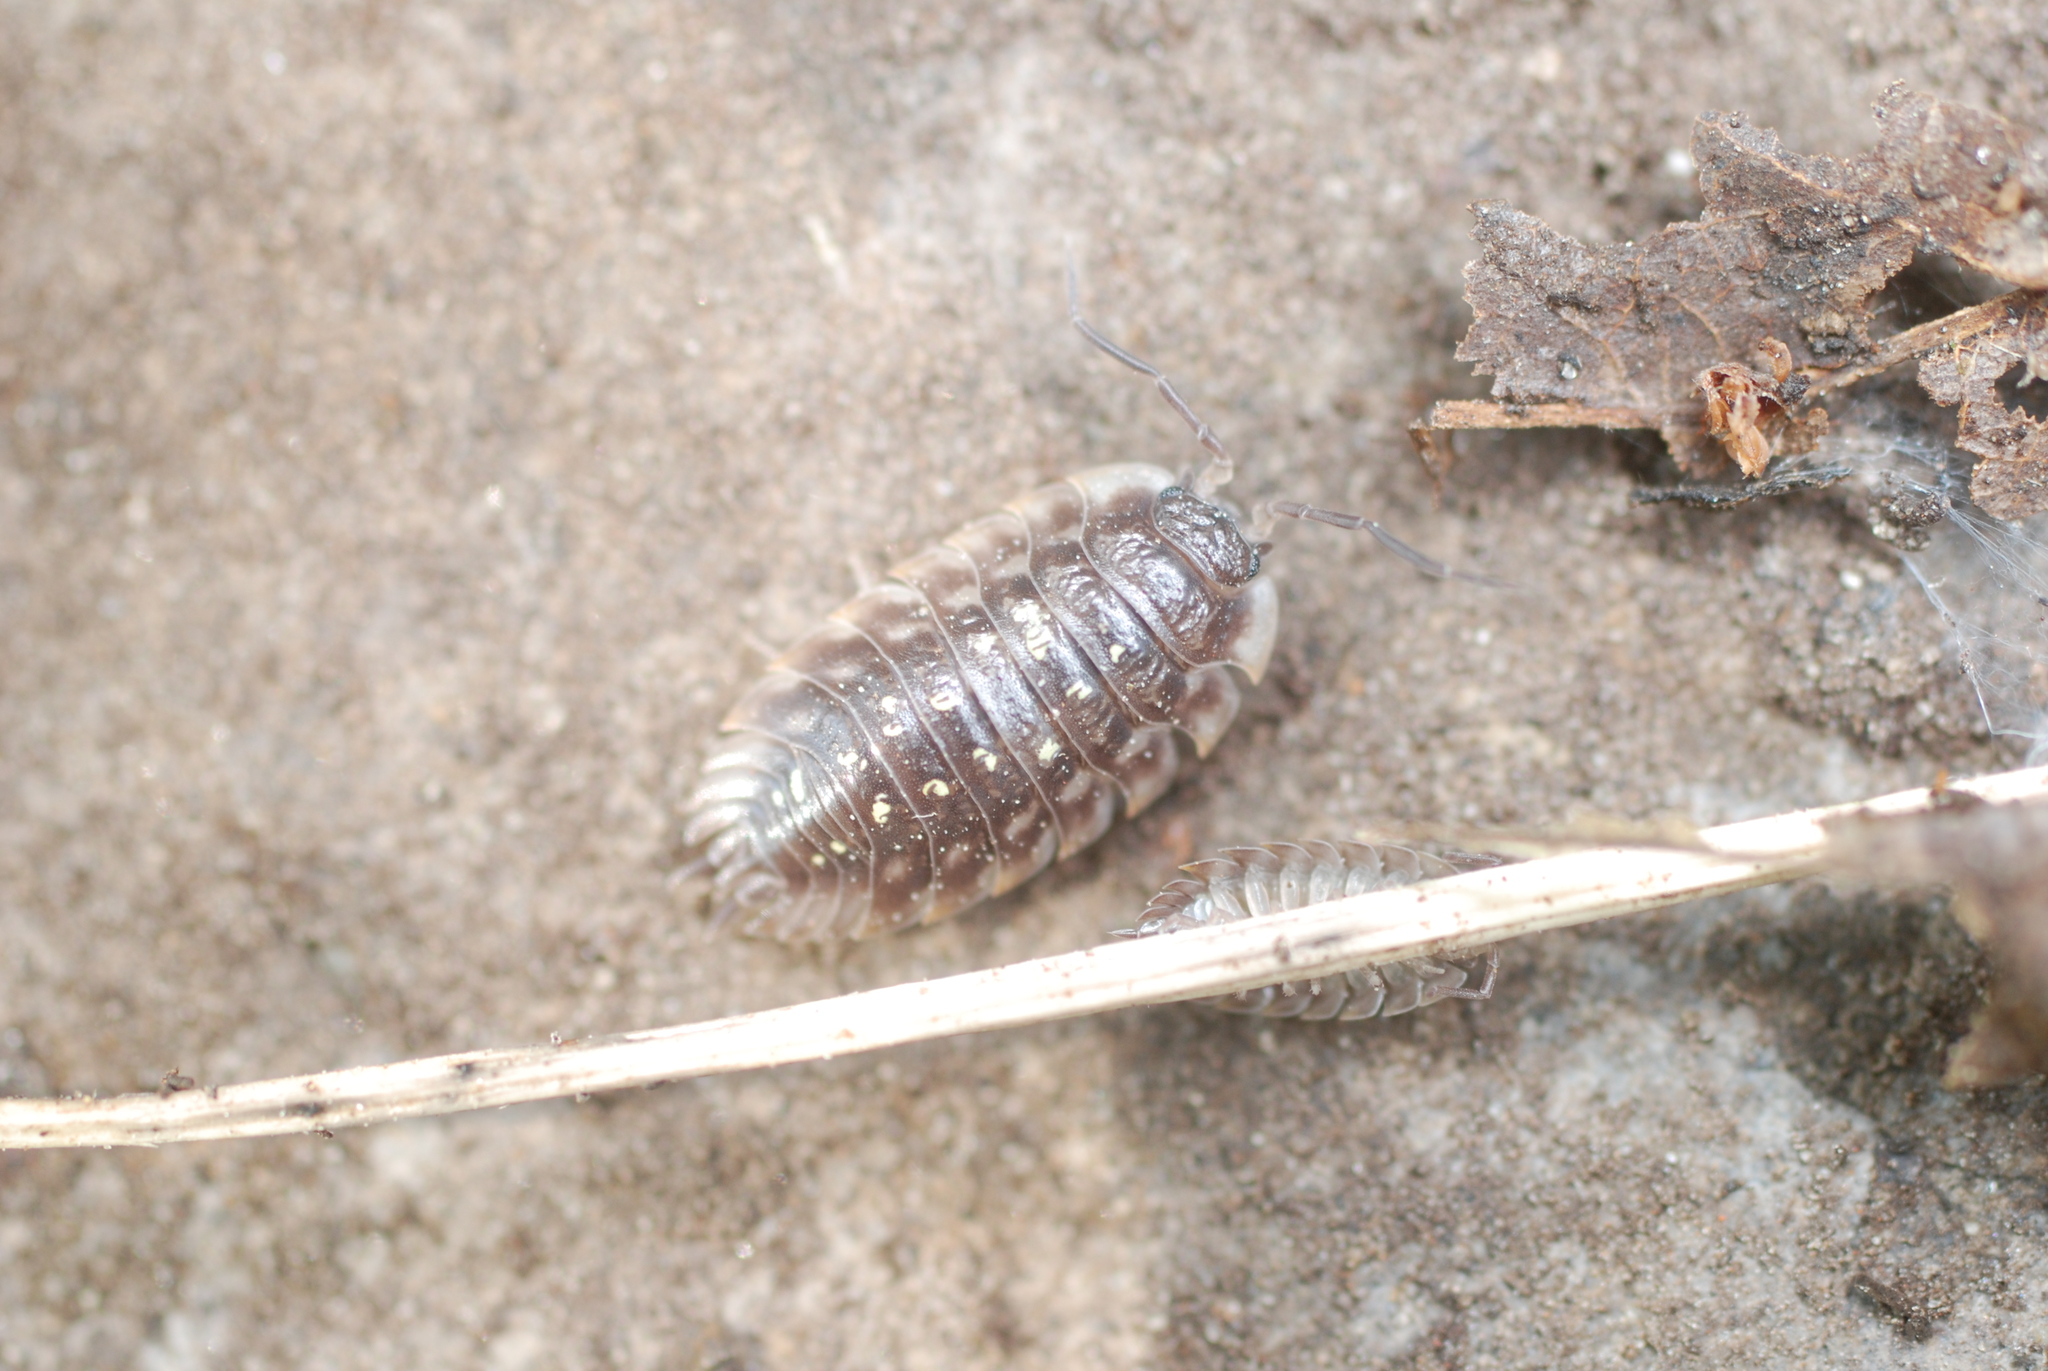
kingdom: Animalia
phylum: Arthropoda
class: Malacostraca
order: Isopoda
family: Oniscidae
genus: Oniscus
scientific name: Oniscus asellus
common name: Common shiny woodlouse
